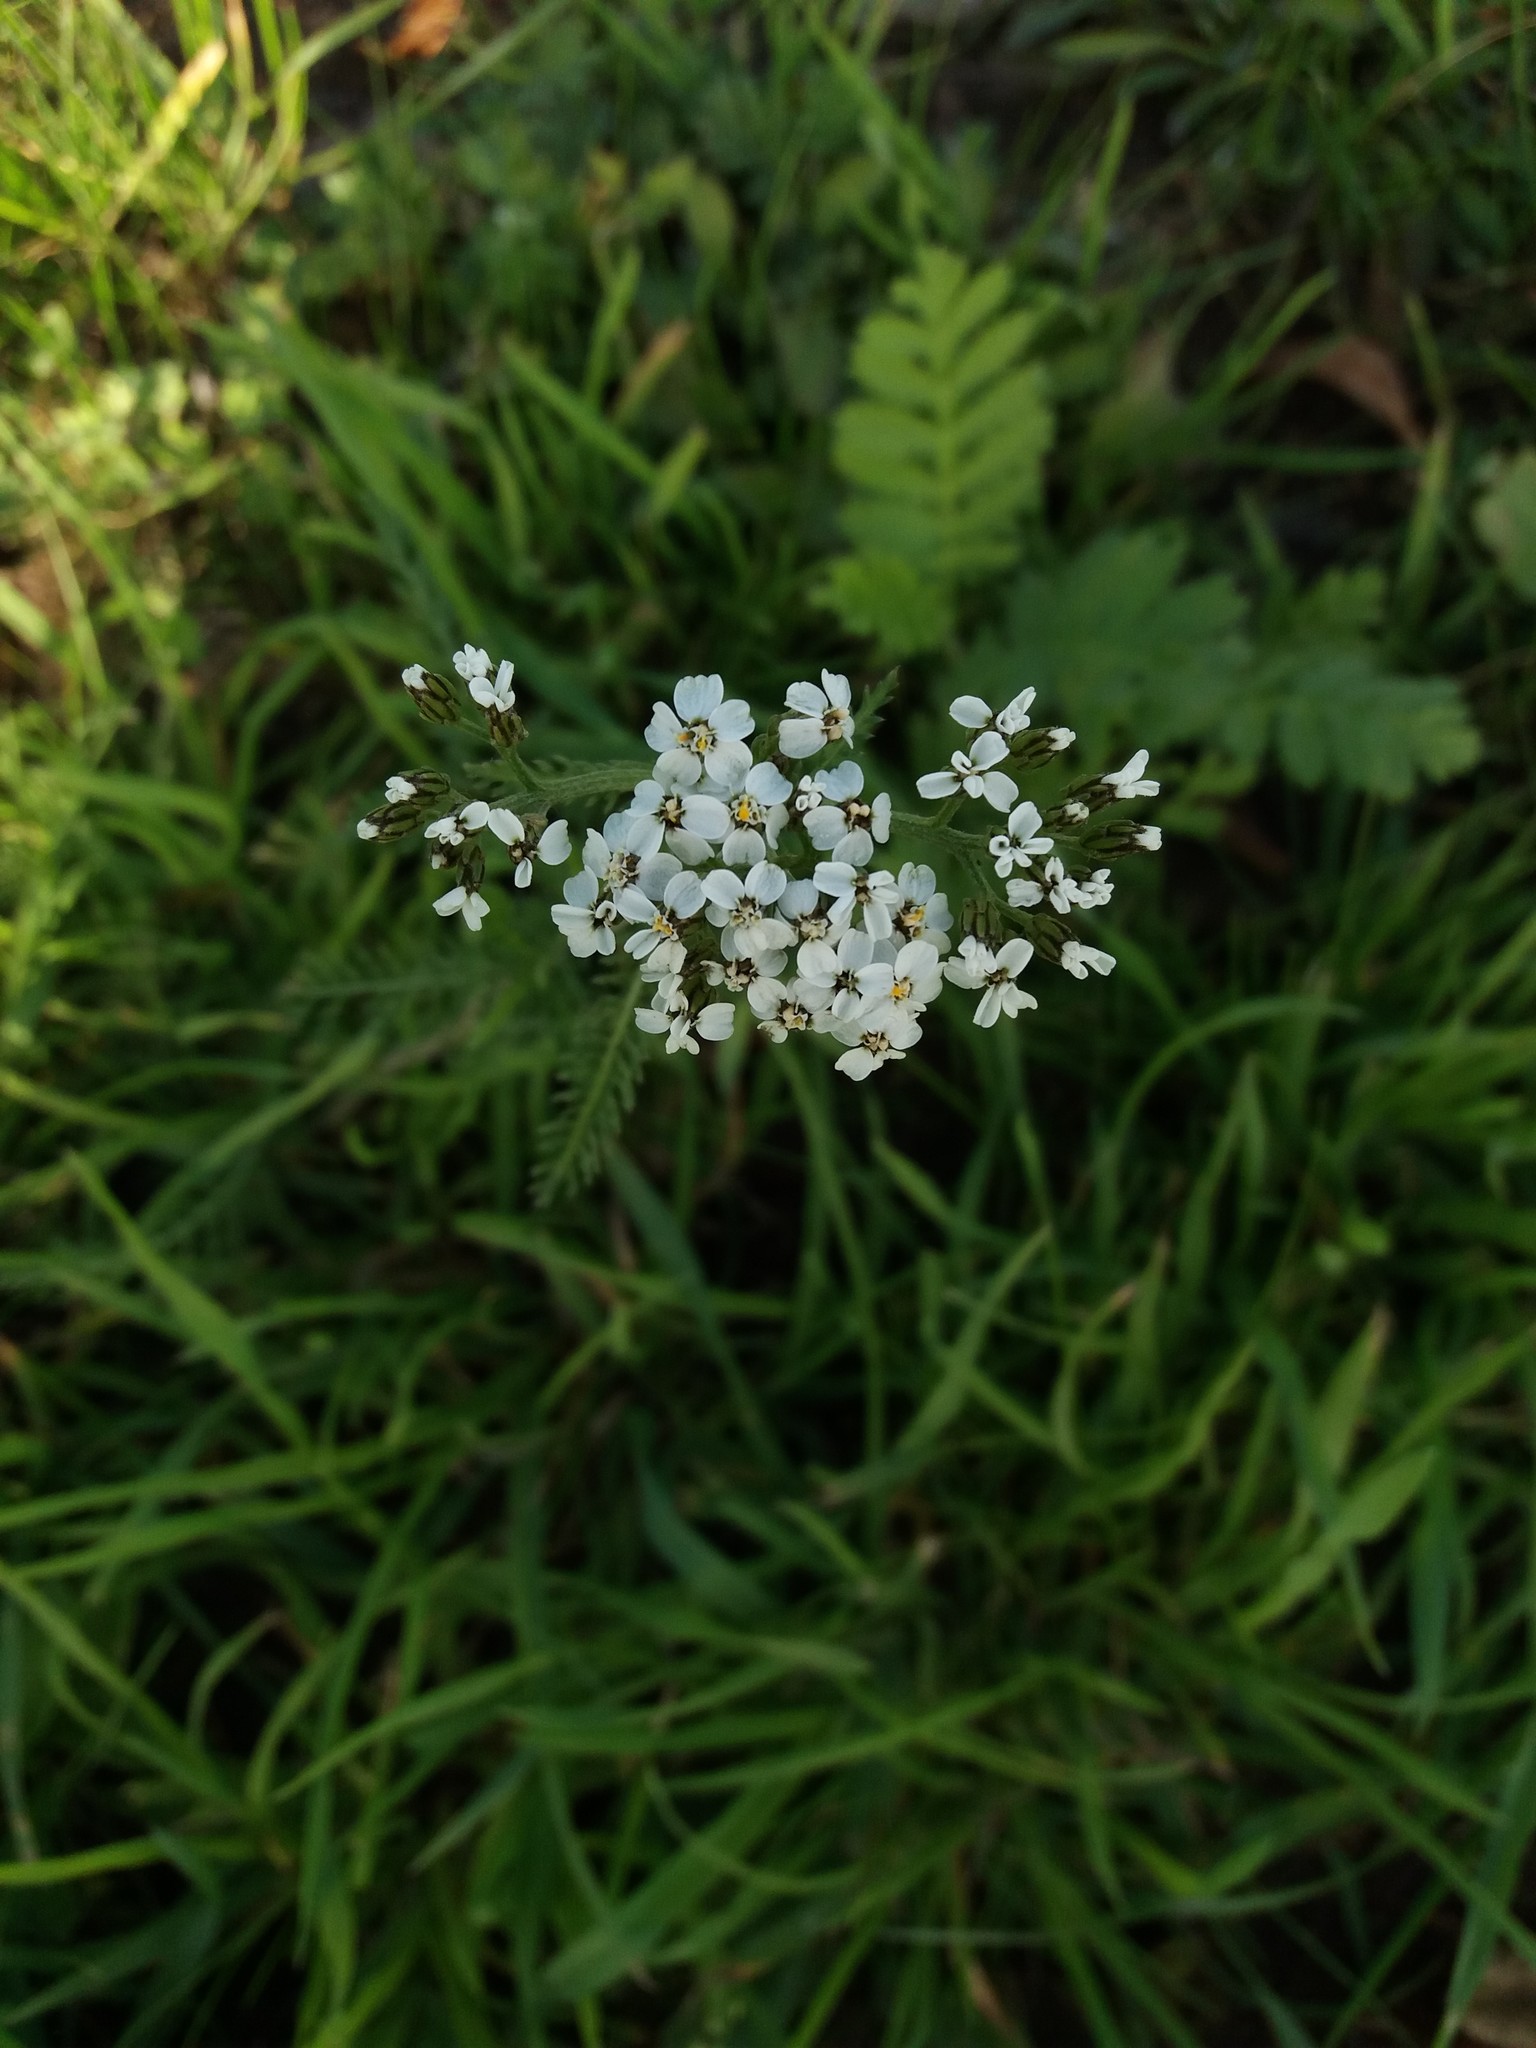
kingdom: Plantae
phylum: Tracheophyta
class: Magnoliopsida
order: Asterales
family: Asteraceae
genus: Achillea
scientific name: Achillea millefolium
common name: Yarrow
